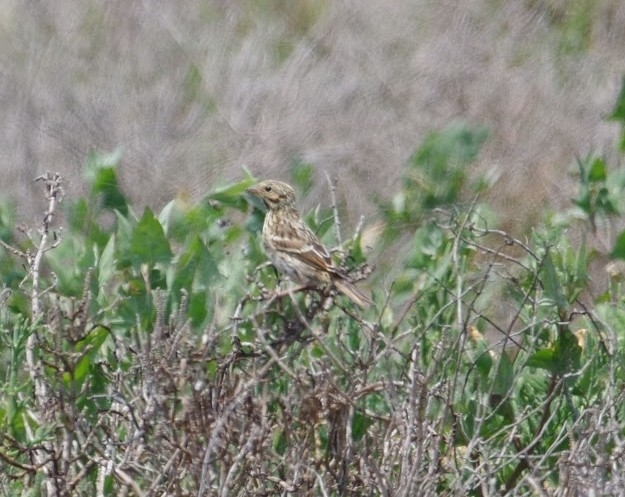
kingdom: Animalia
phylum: Chordata
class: Aves
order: Passeriformes
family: Passerellidae
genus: Passerculus
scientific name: Passerculus sandwichensis
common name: Savannah sparrow
